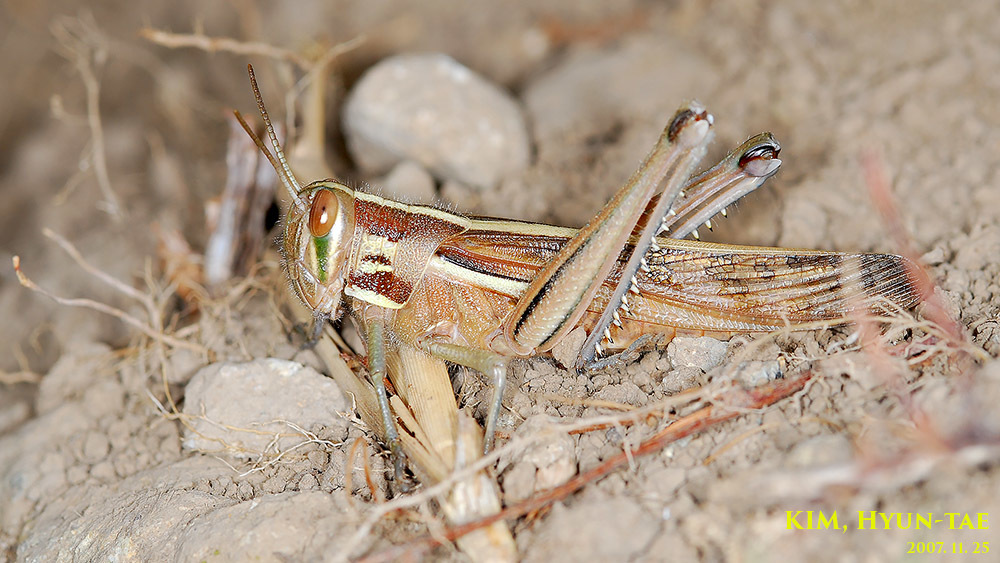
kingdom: Animalia
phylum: Arthropoda
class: Insecta
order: Orthoptera
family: Acrididae
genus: Patanga
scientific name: Patanga japonica
